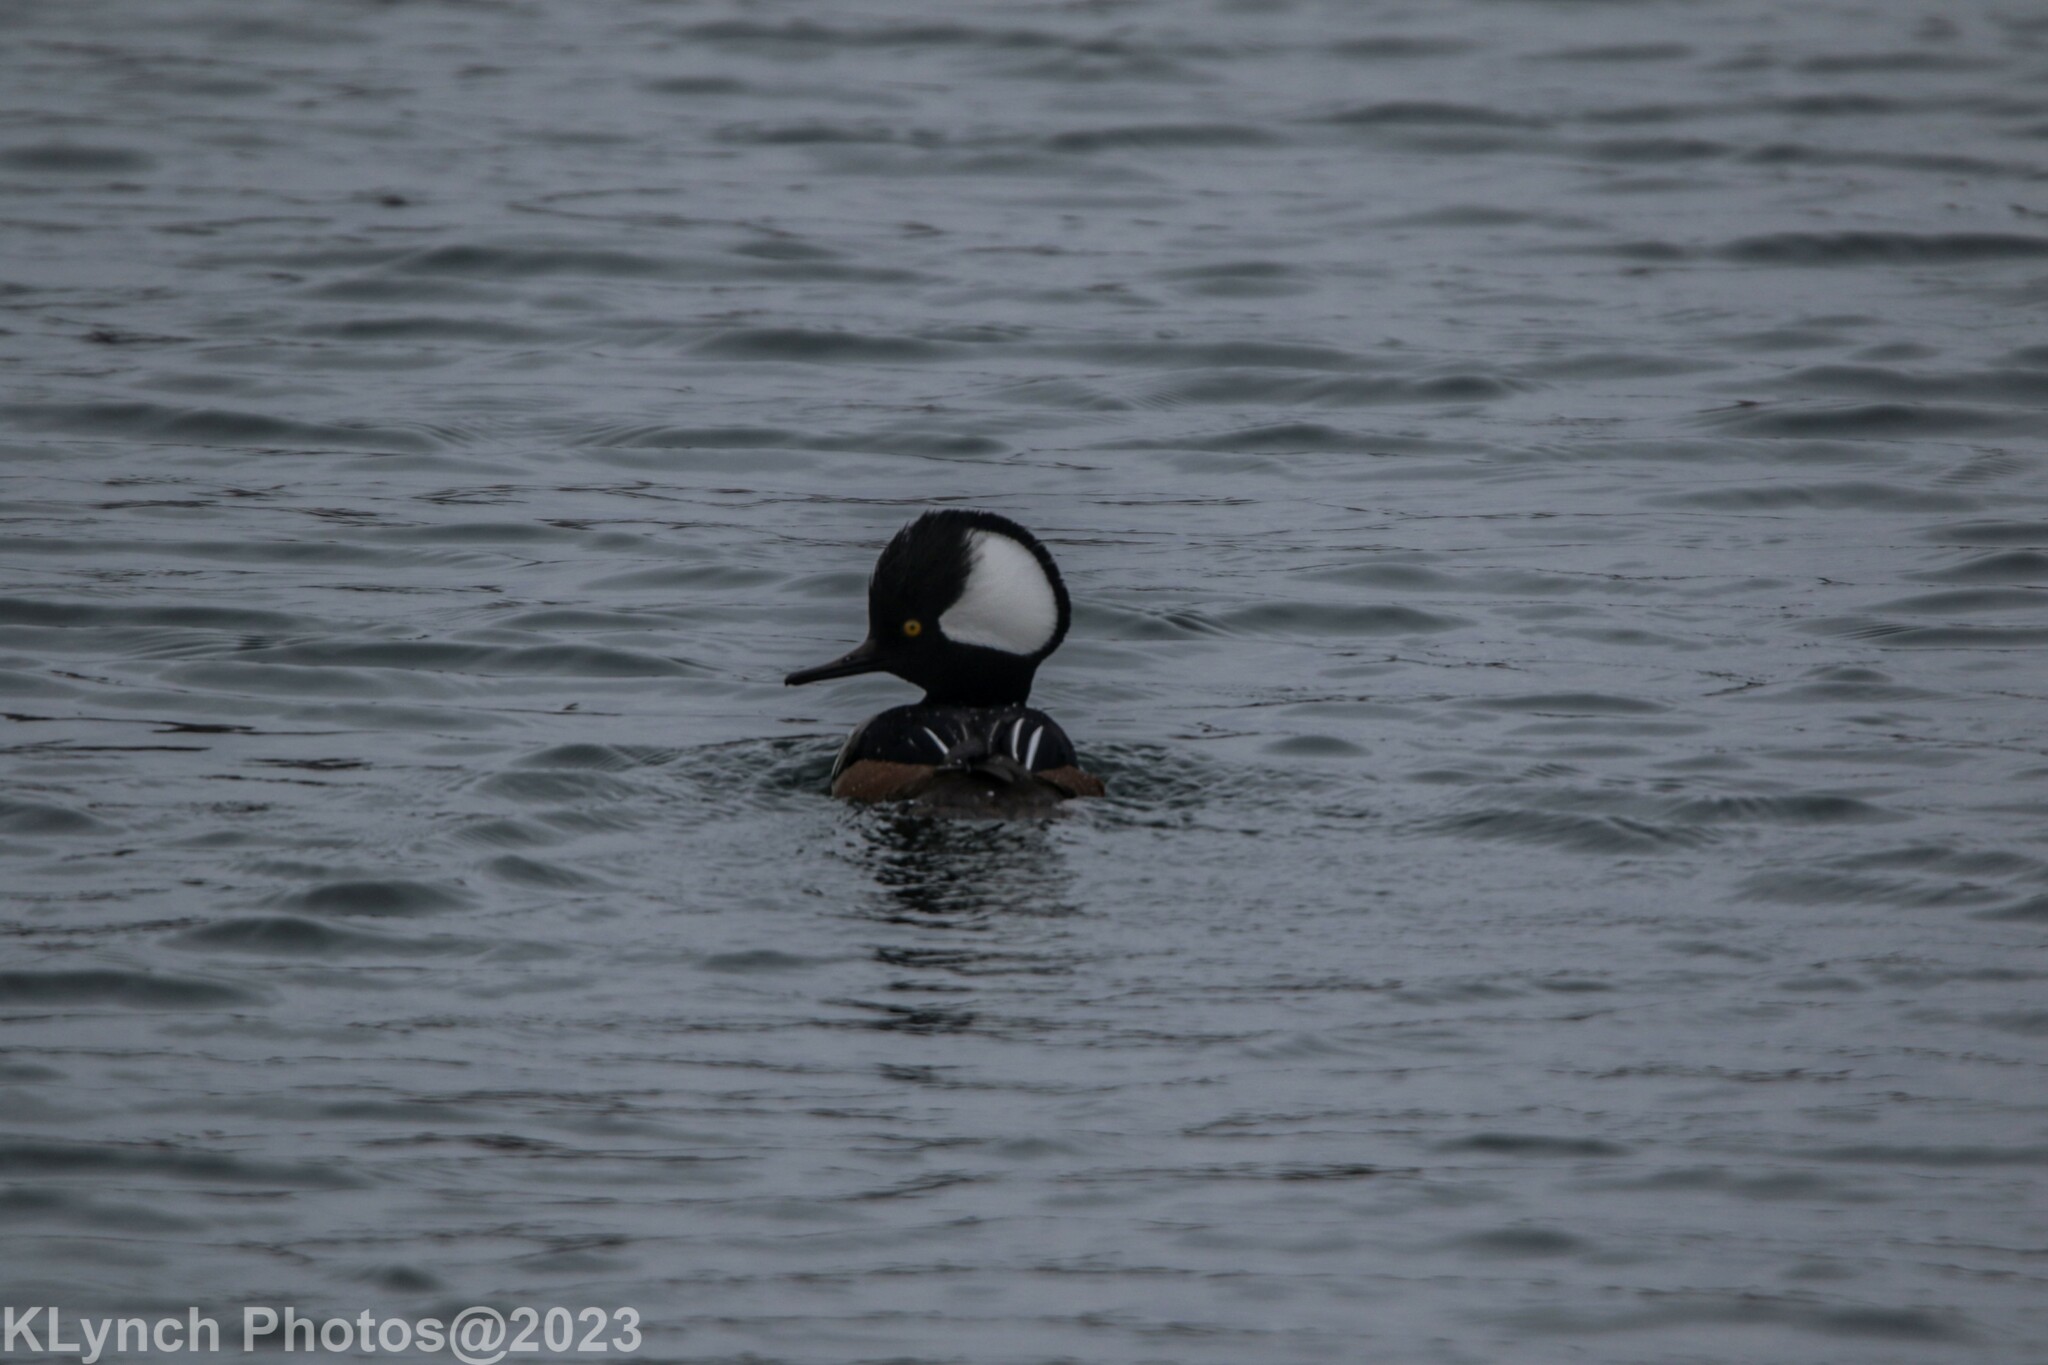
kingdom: Animalia
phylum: Chordata
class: Aves
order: Anseriformes
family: Anatidae
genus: Lophodytes
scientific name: Lophodytes cucullatus
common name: Hooded merganser
